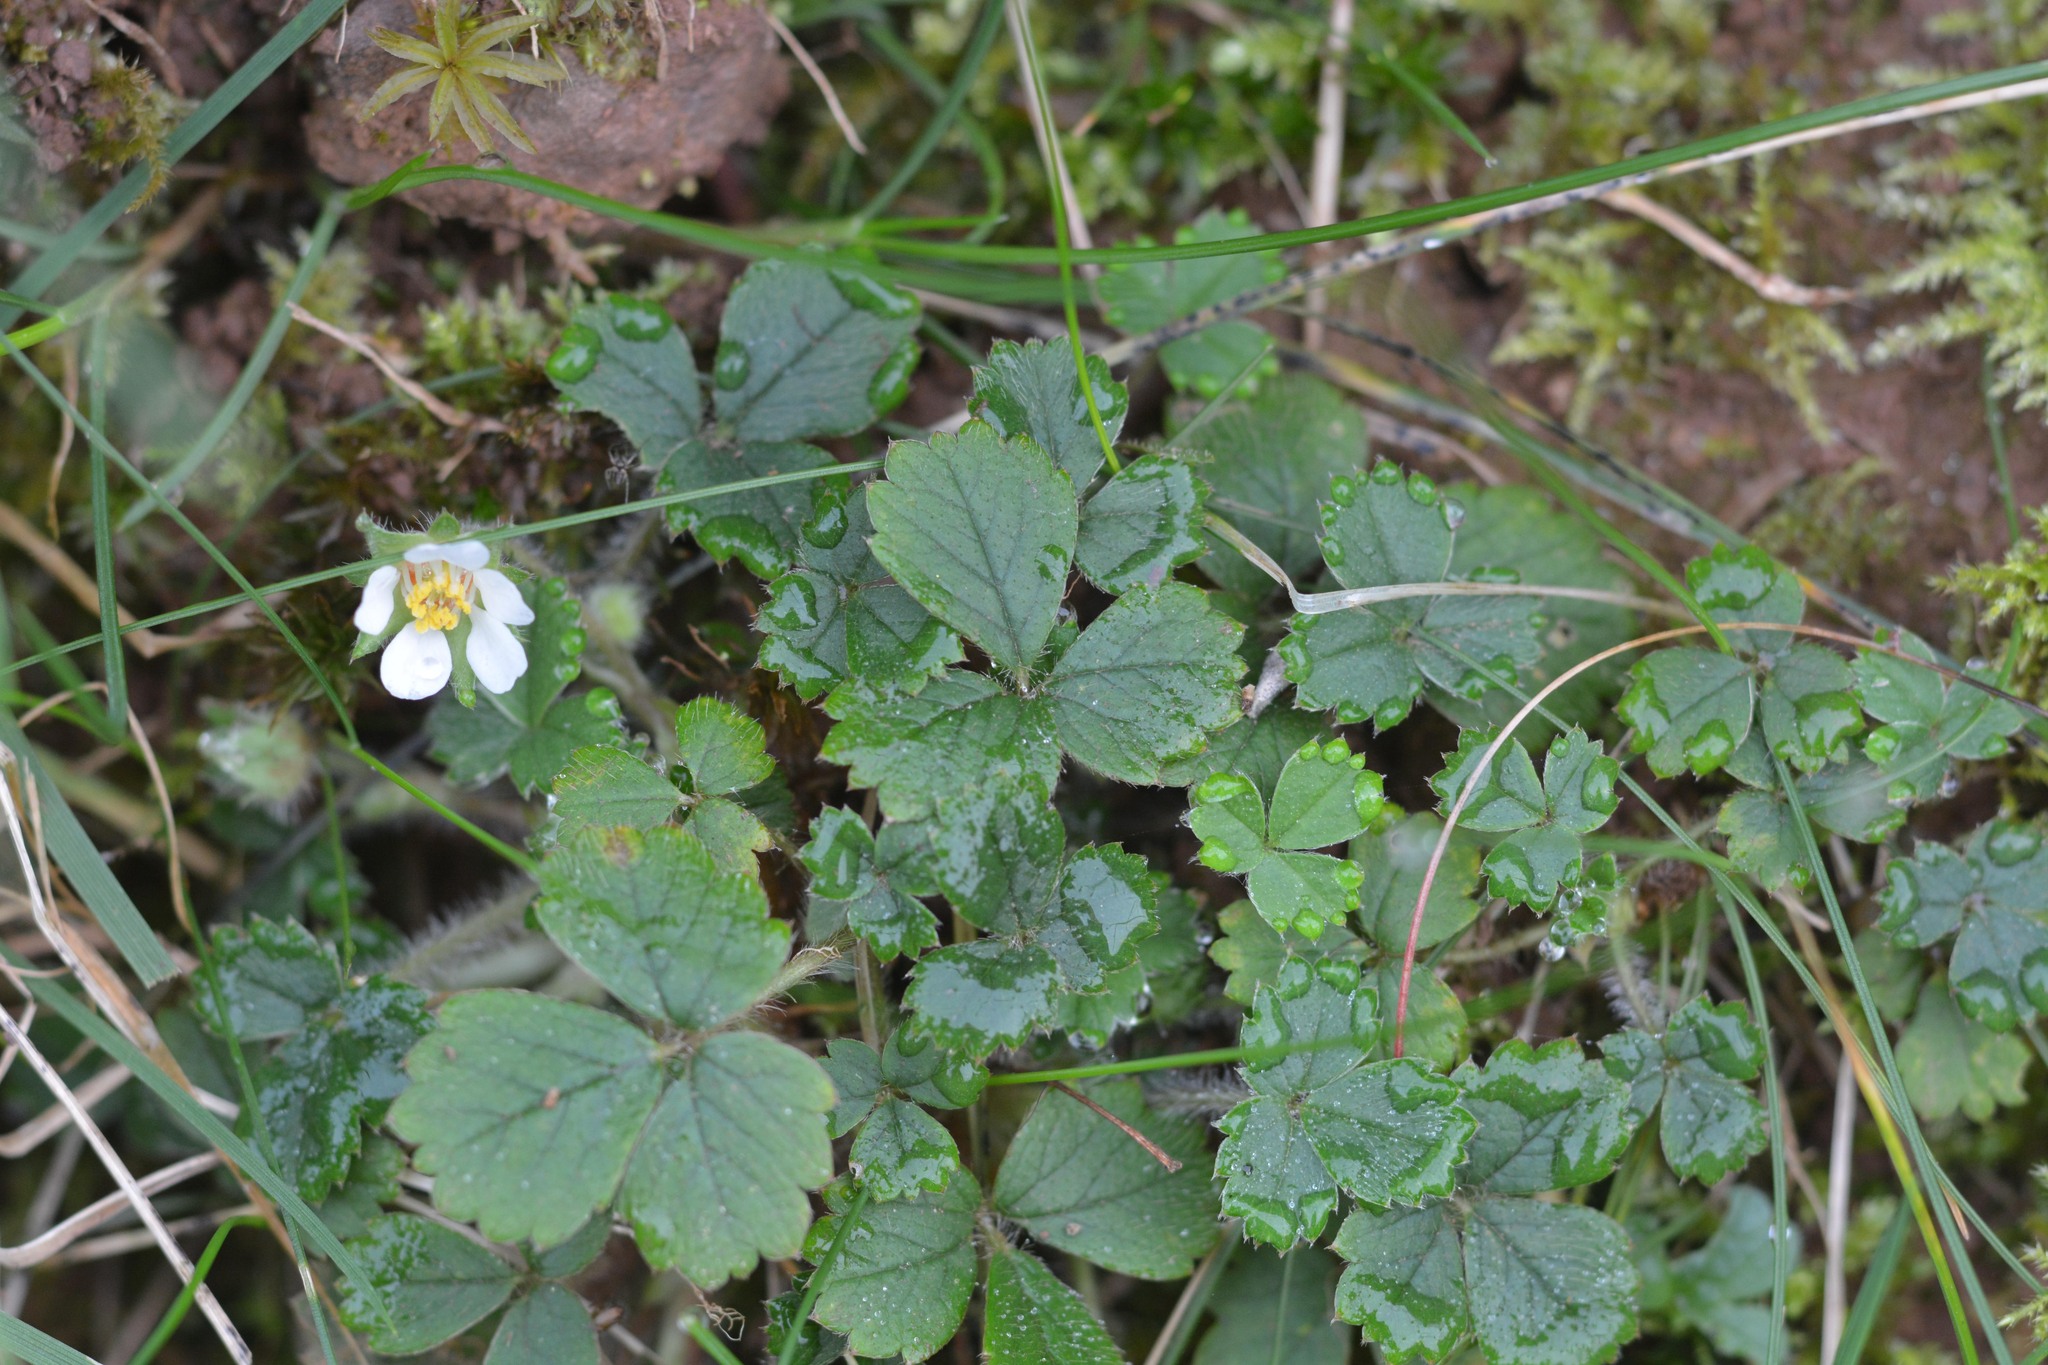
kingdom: Plantae
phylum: Tracheophyta
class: Magnoliopsida
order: Rosales
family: Rosaceae
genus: Potentilla
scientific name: Potentilla sterilis
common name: Barren strawberry
